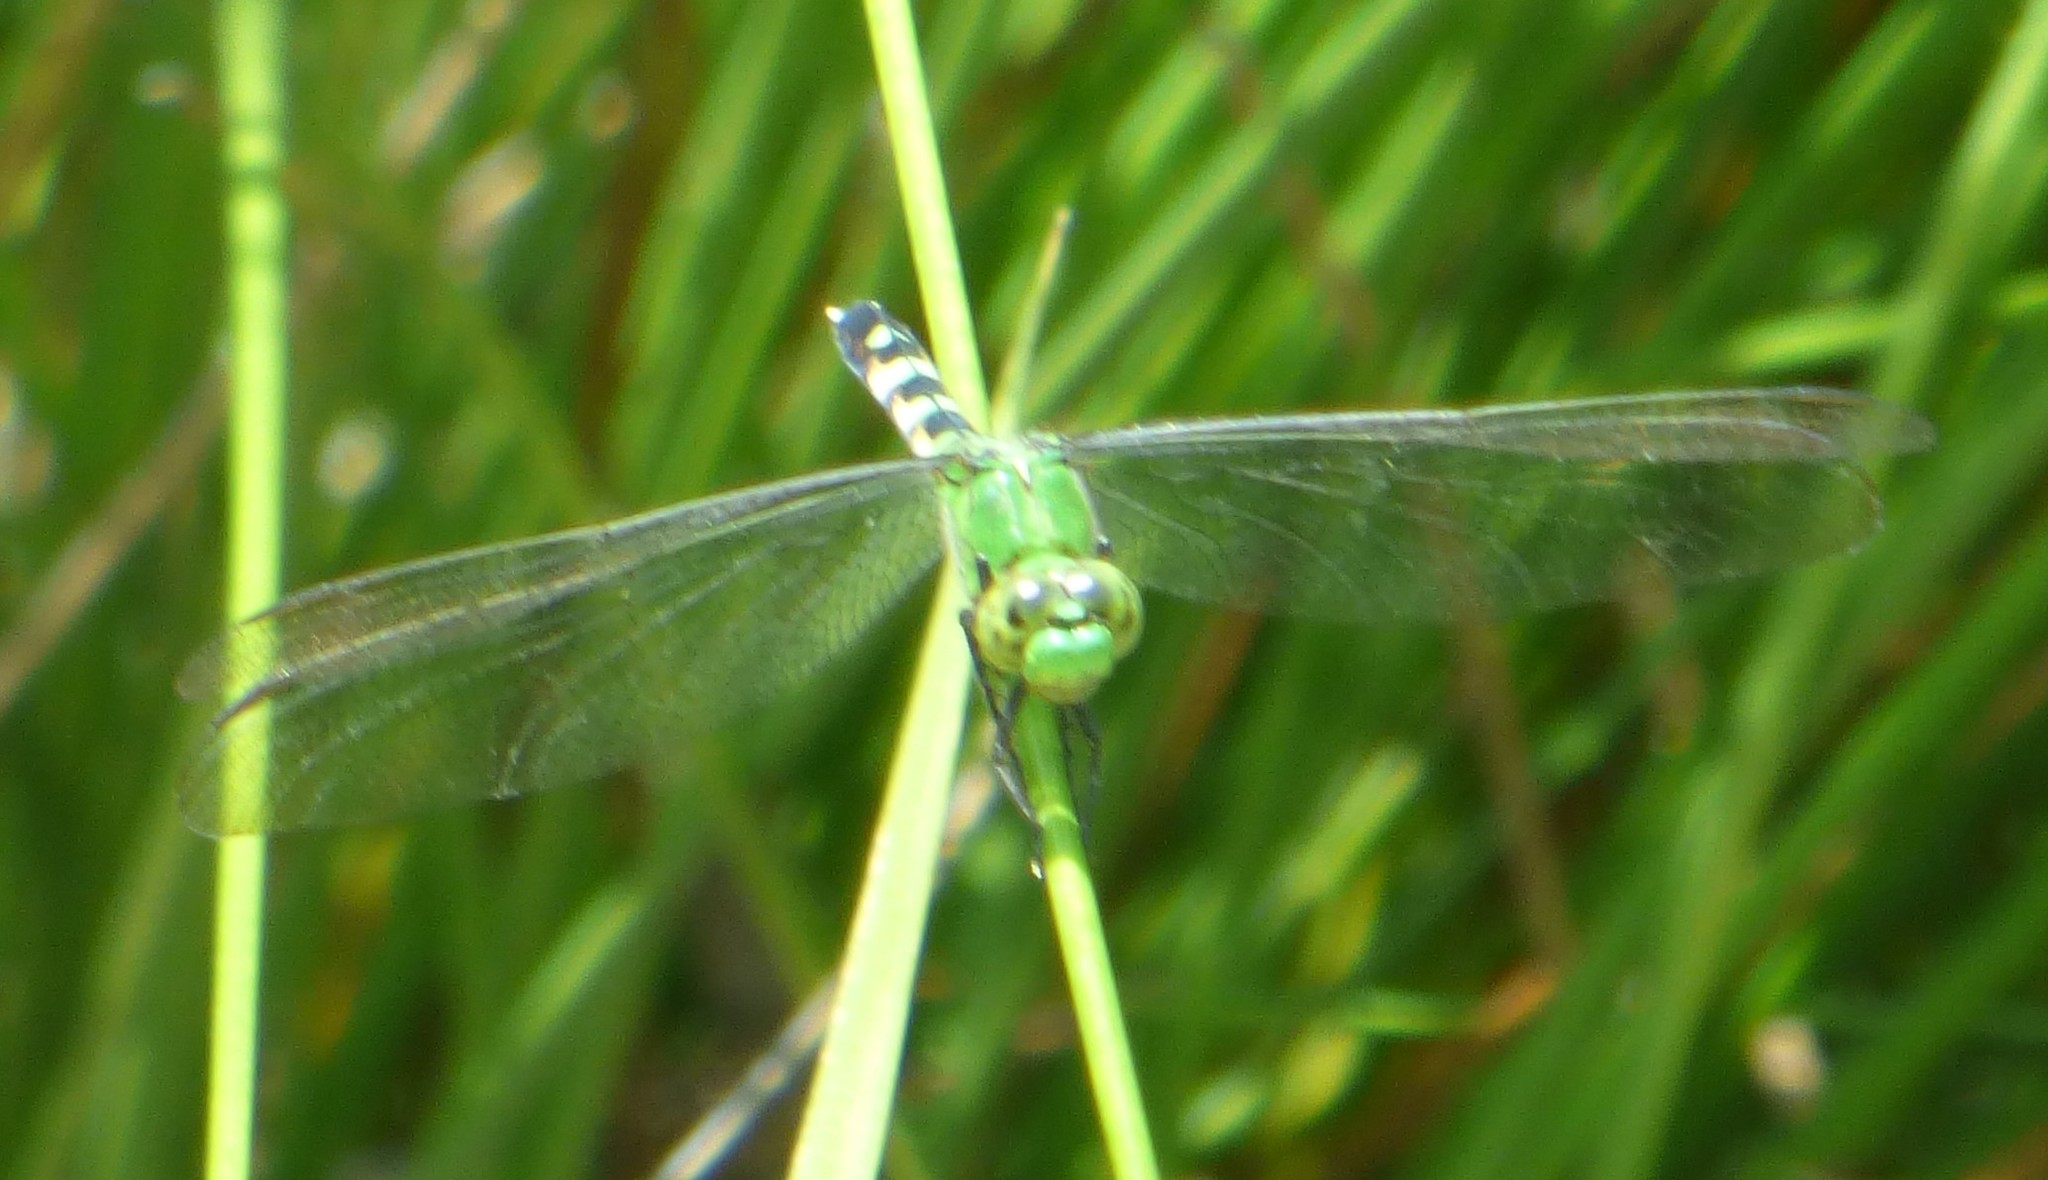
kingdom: Animalia
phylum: Arthropoda
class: Insecta
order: Odonata
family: Libellulidae
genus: Erythemis
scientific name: Erythemis simplicicollis
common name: Eastern pondhawk
